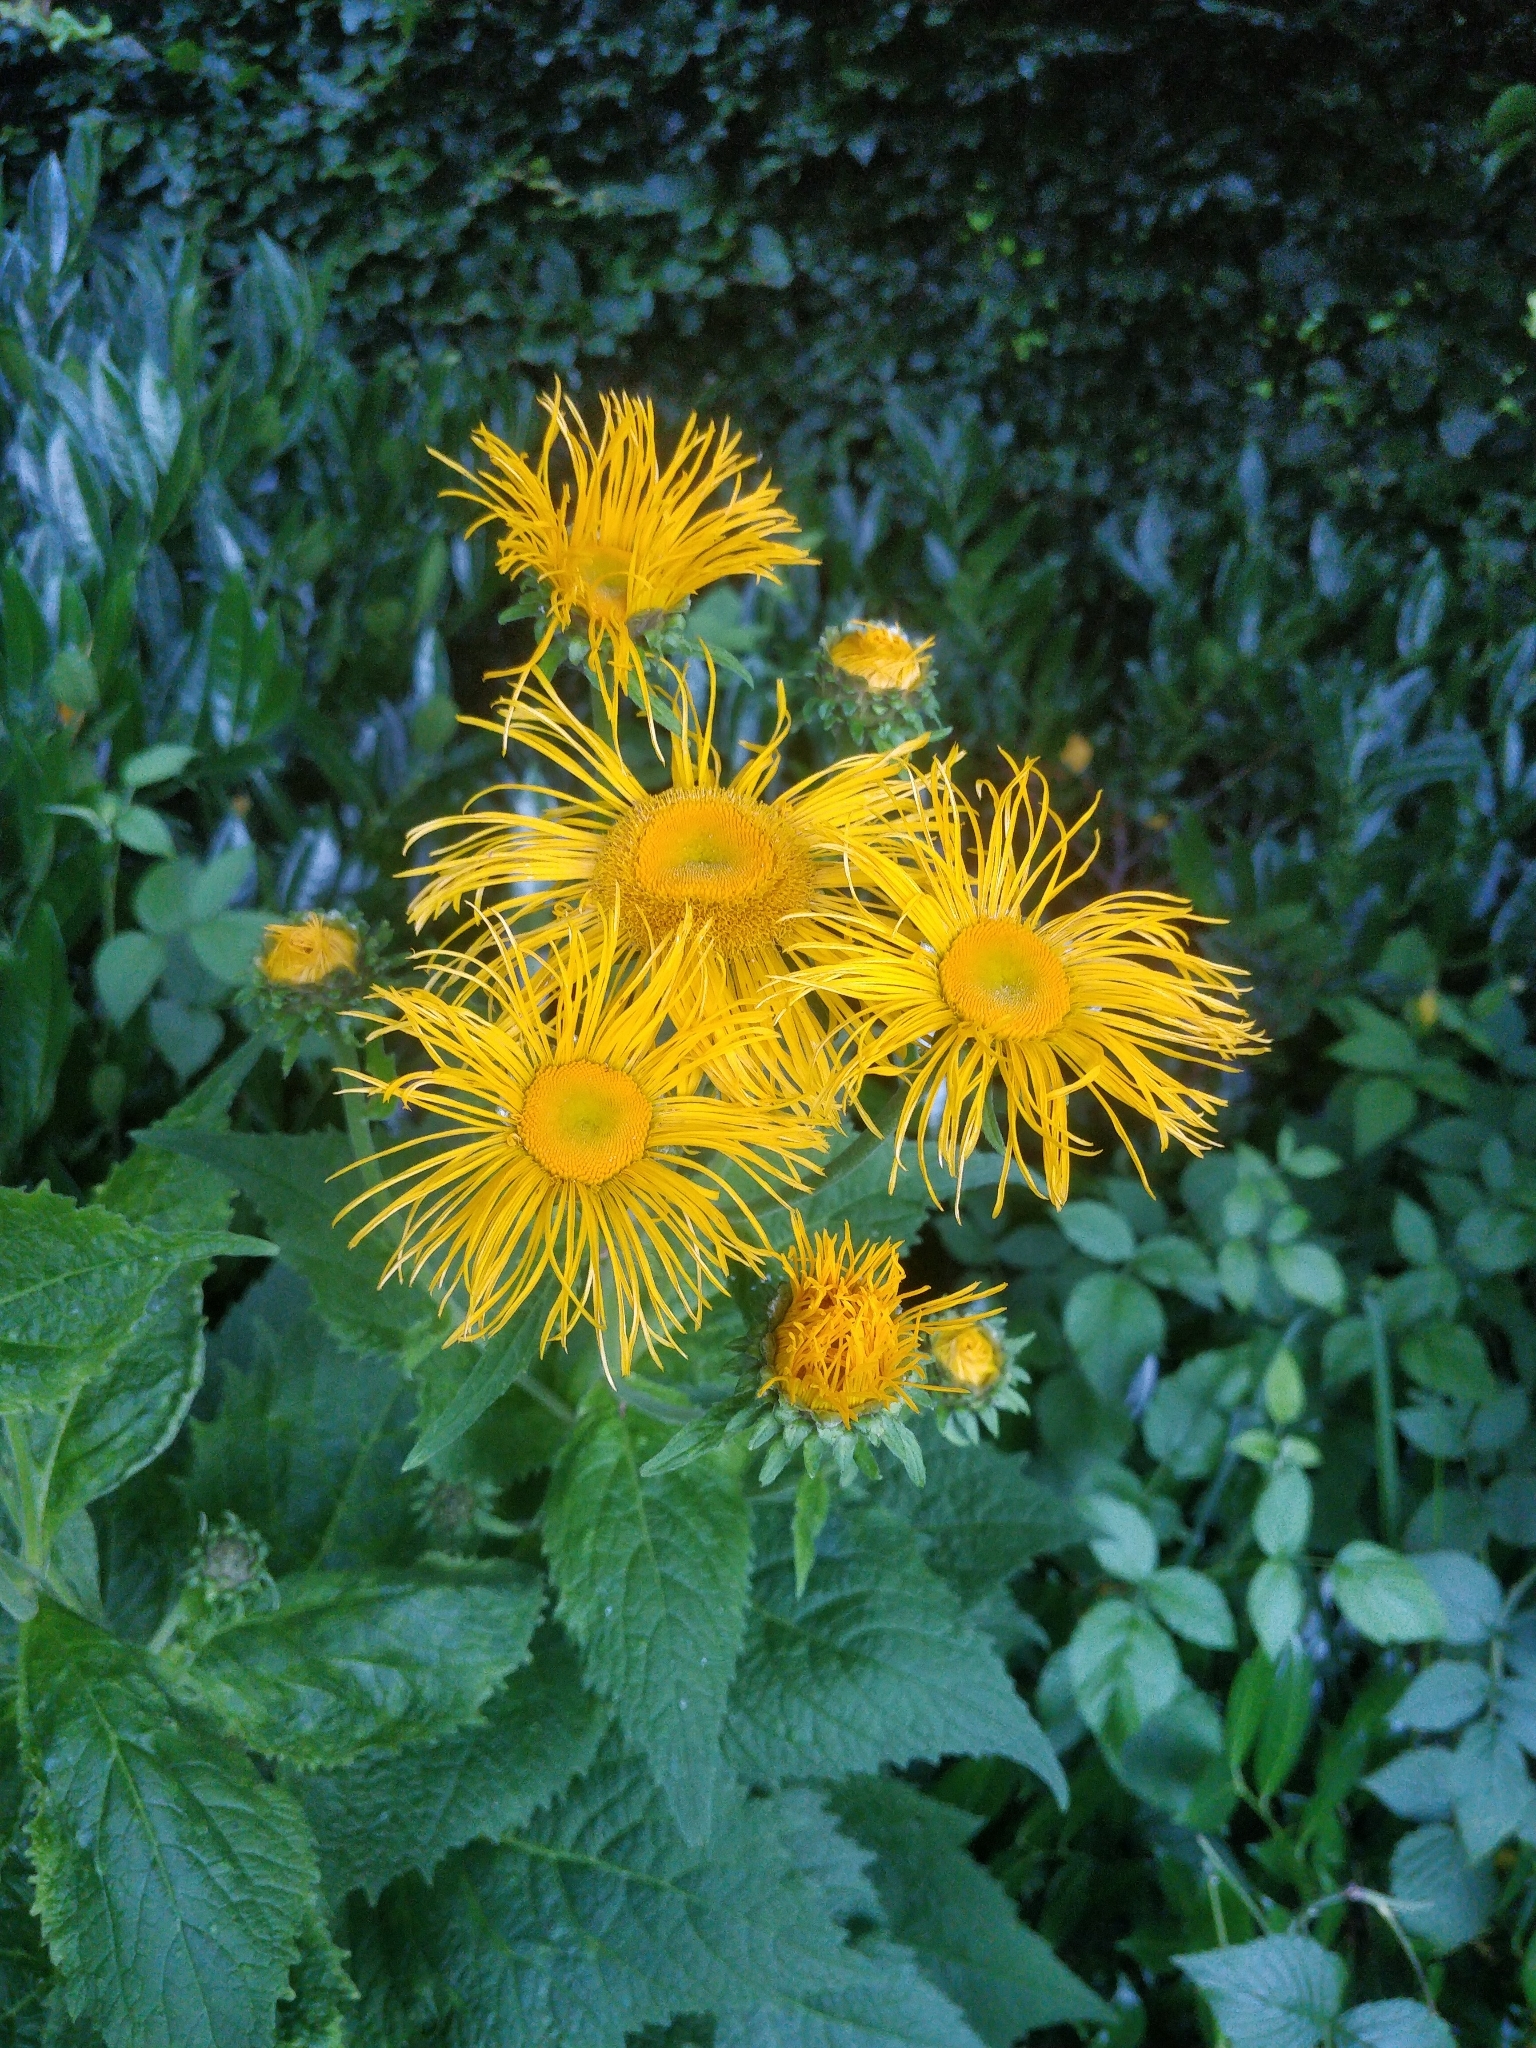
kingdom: Plantae
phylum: Tracheophyta
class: Magnoliopsida
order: Asterales
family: Asteraceae
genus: Telekia
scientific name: Telekia speciosa
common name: Yellow oxeye
